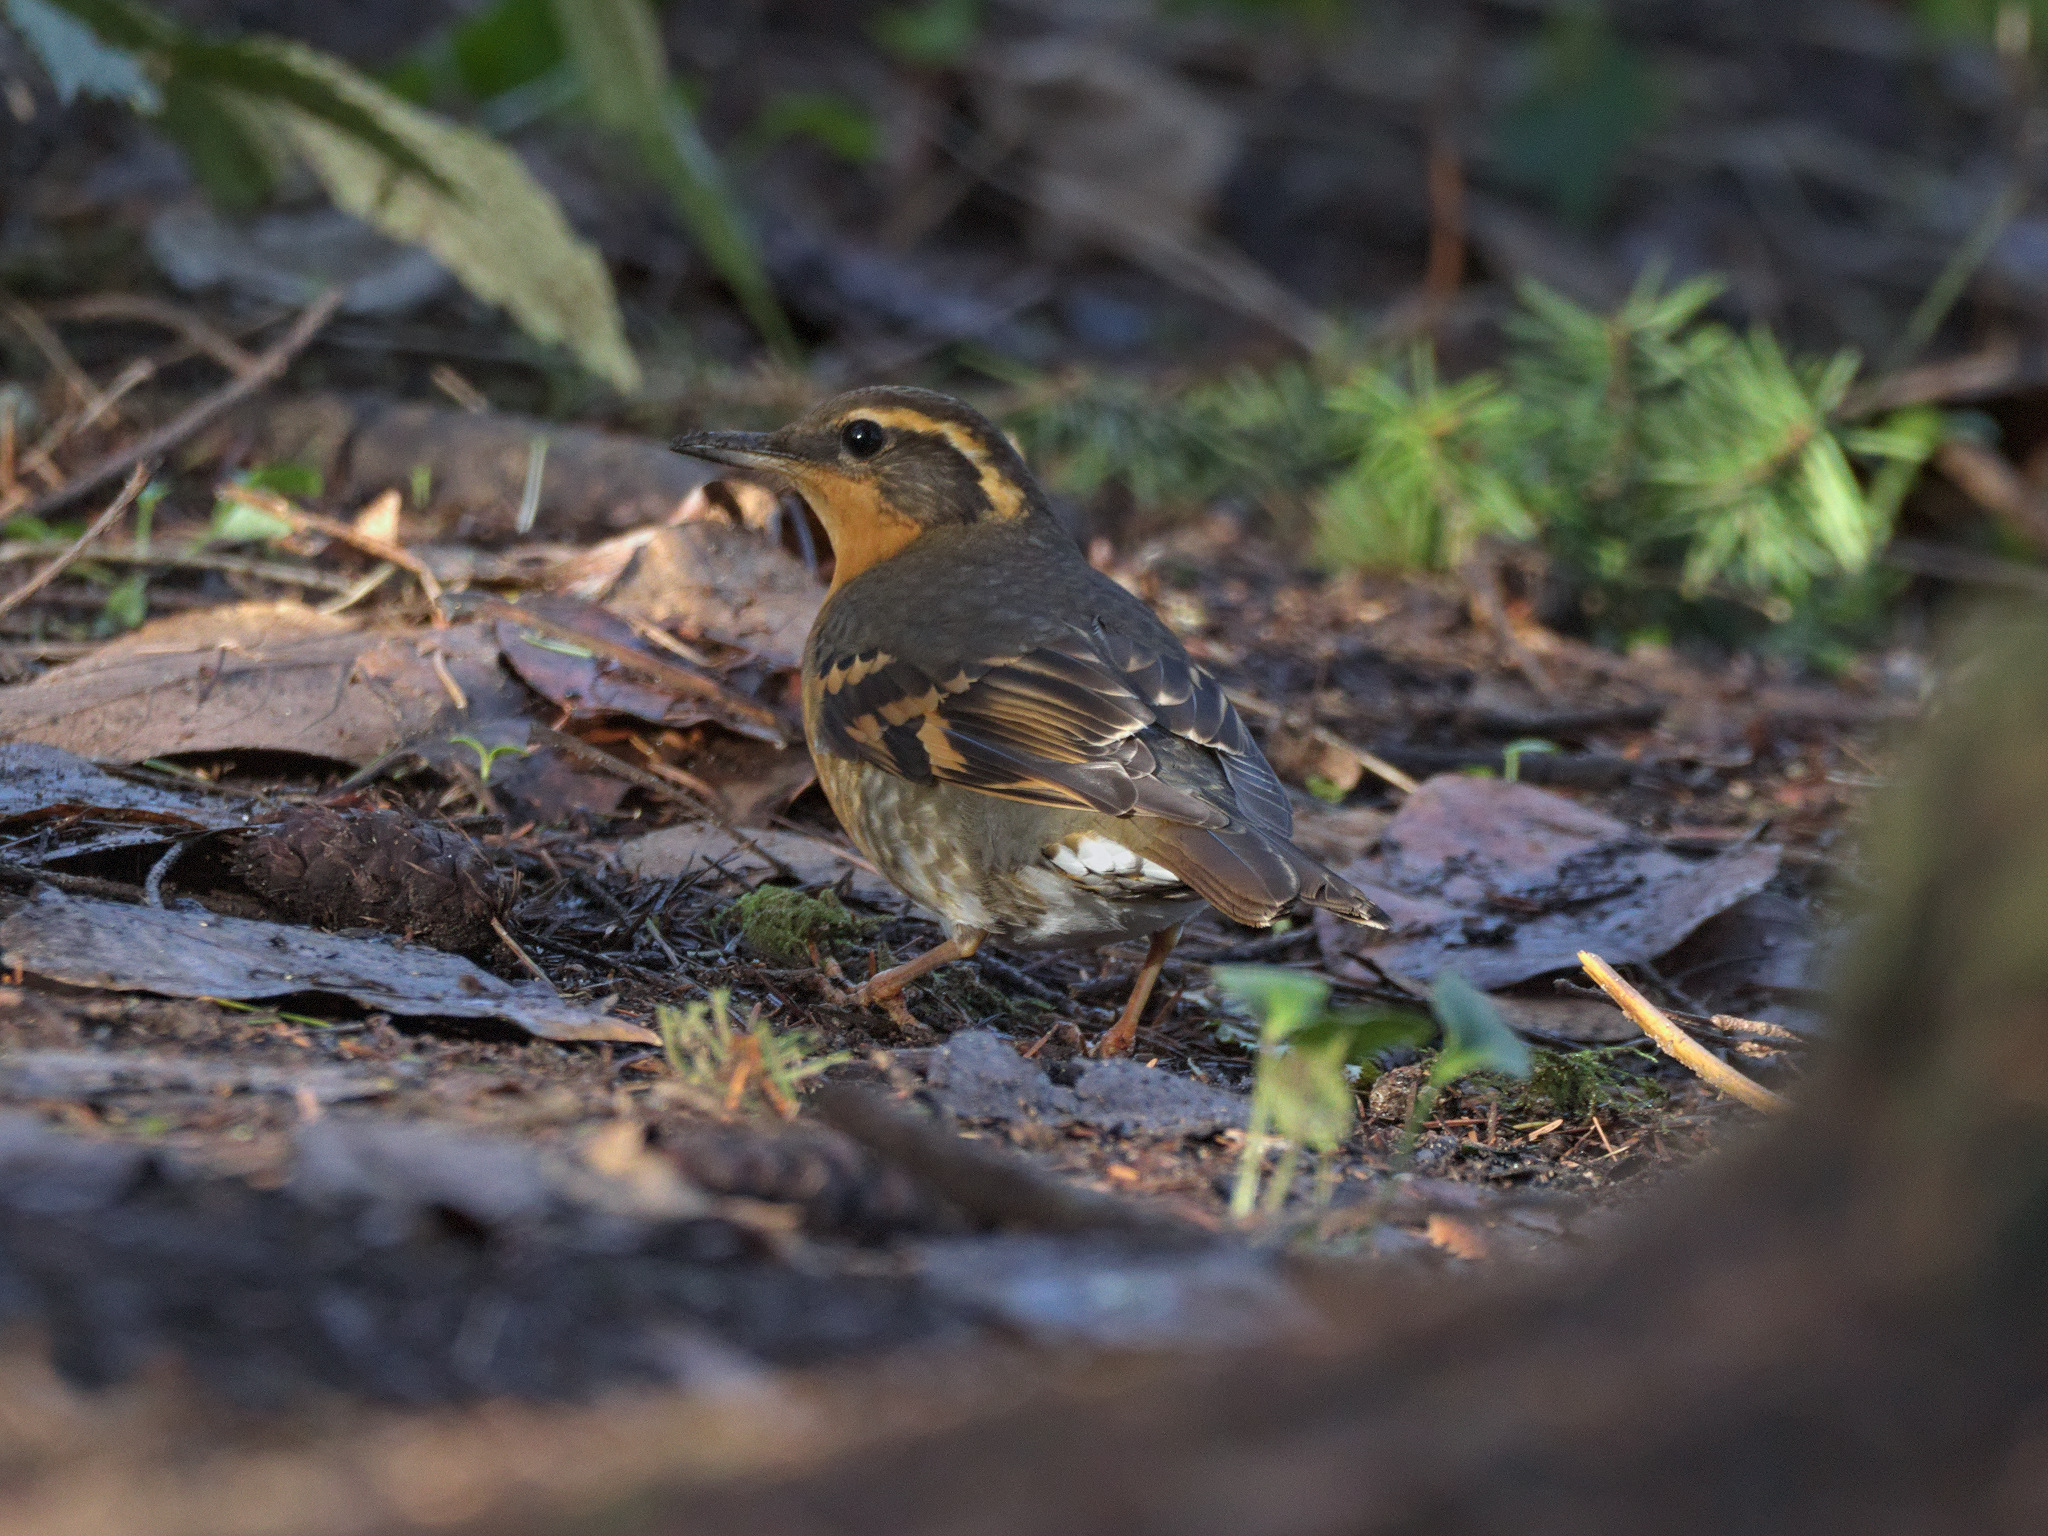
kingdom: Animalia
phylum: Chordata
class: Aves
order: Passeriformes
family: Turdidae
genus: Ixoreus
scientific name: Ixoreus naevius
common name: Varied thrush
